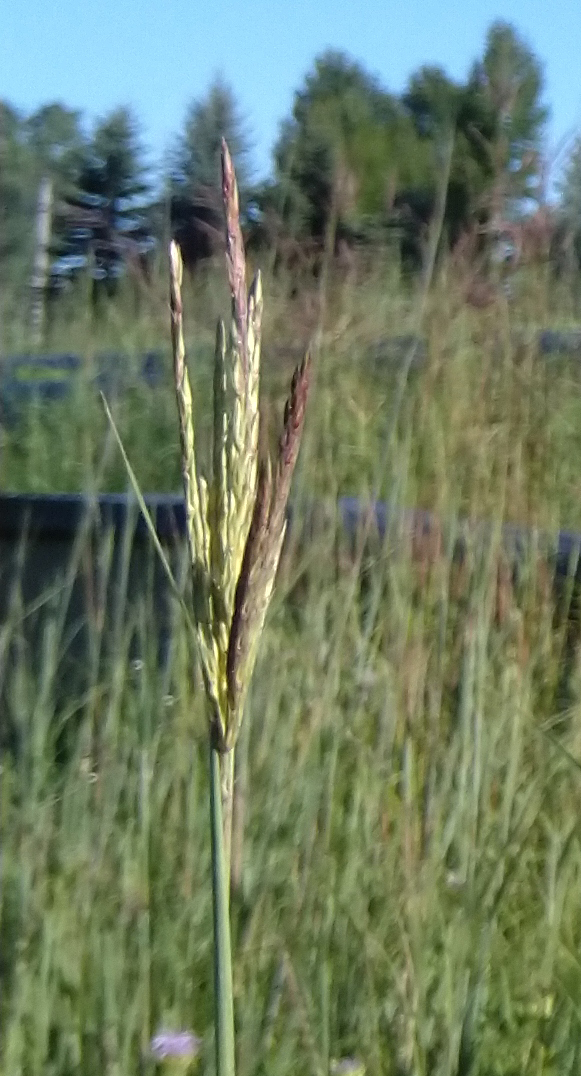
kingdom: Plantae
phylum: Tracheophyta
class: Liliopsida
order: Poales
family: Poaceae
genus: Andropogon
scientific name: Andropogon gerardi
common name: Big bluestem
